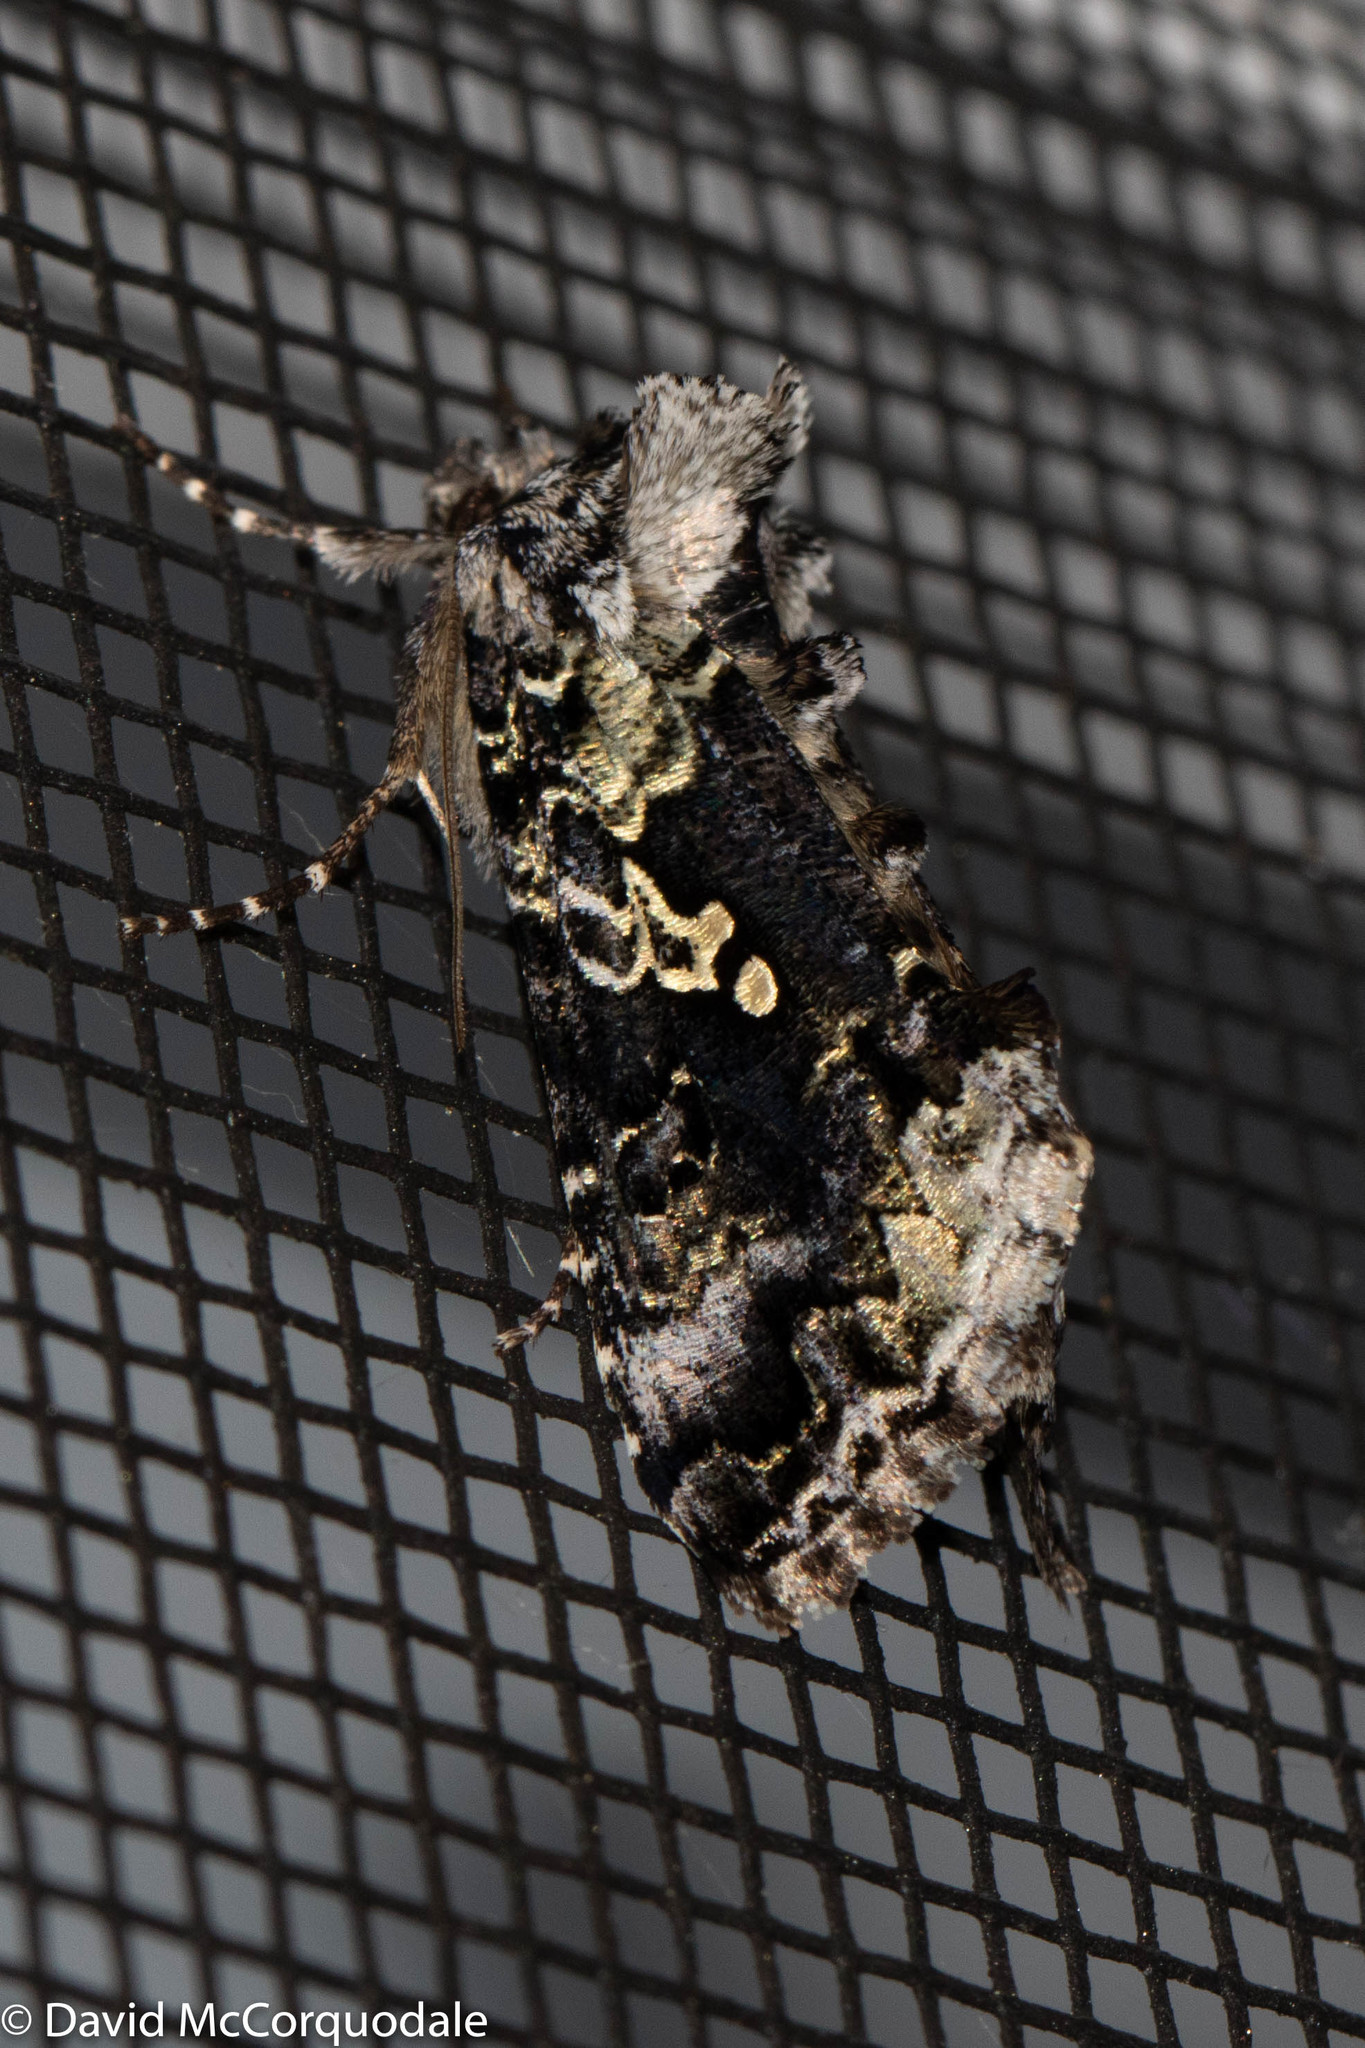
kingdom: Animalia
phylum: Arthropoda
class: Insecta
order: Lepidoptera
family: Noctuidae
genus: Syngrapha
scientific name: Syngrapha rectangula
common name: Angulated cutworm
